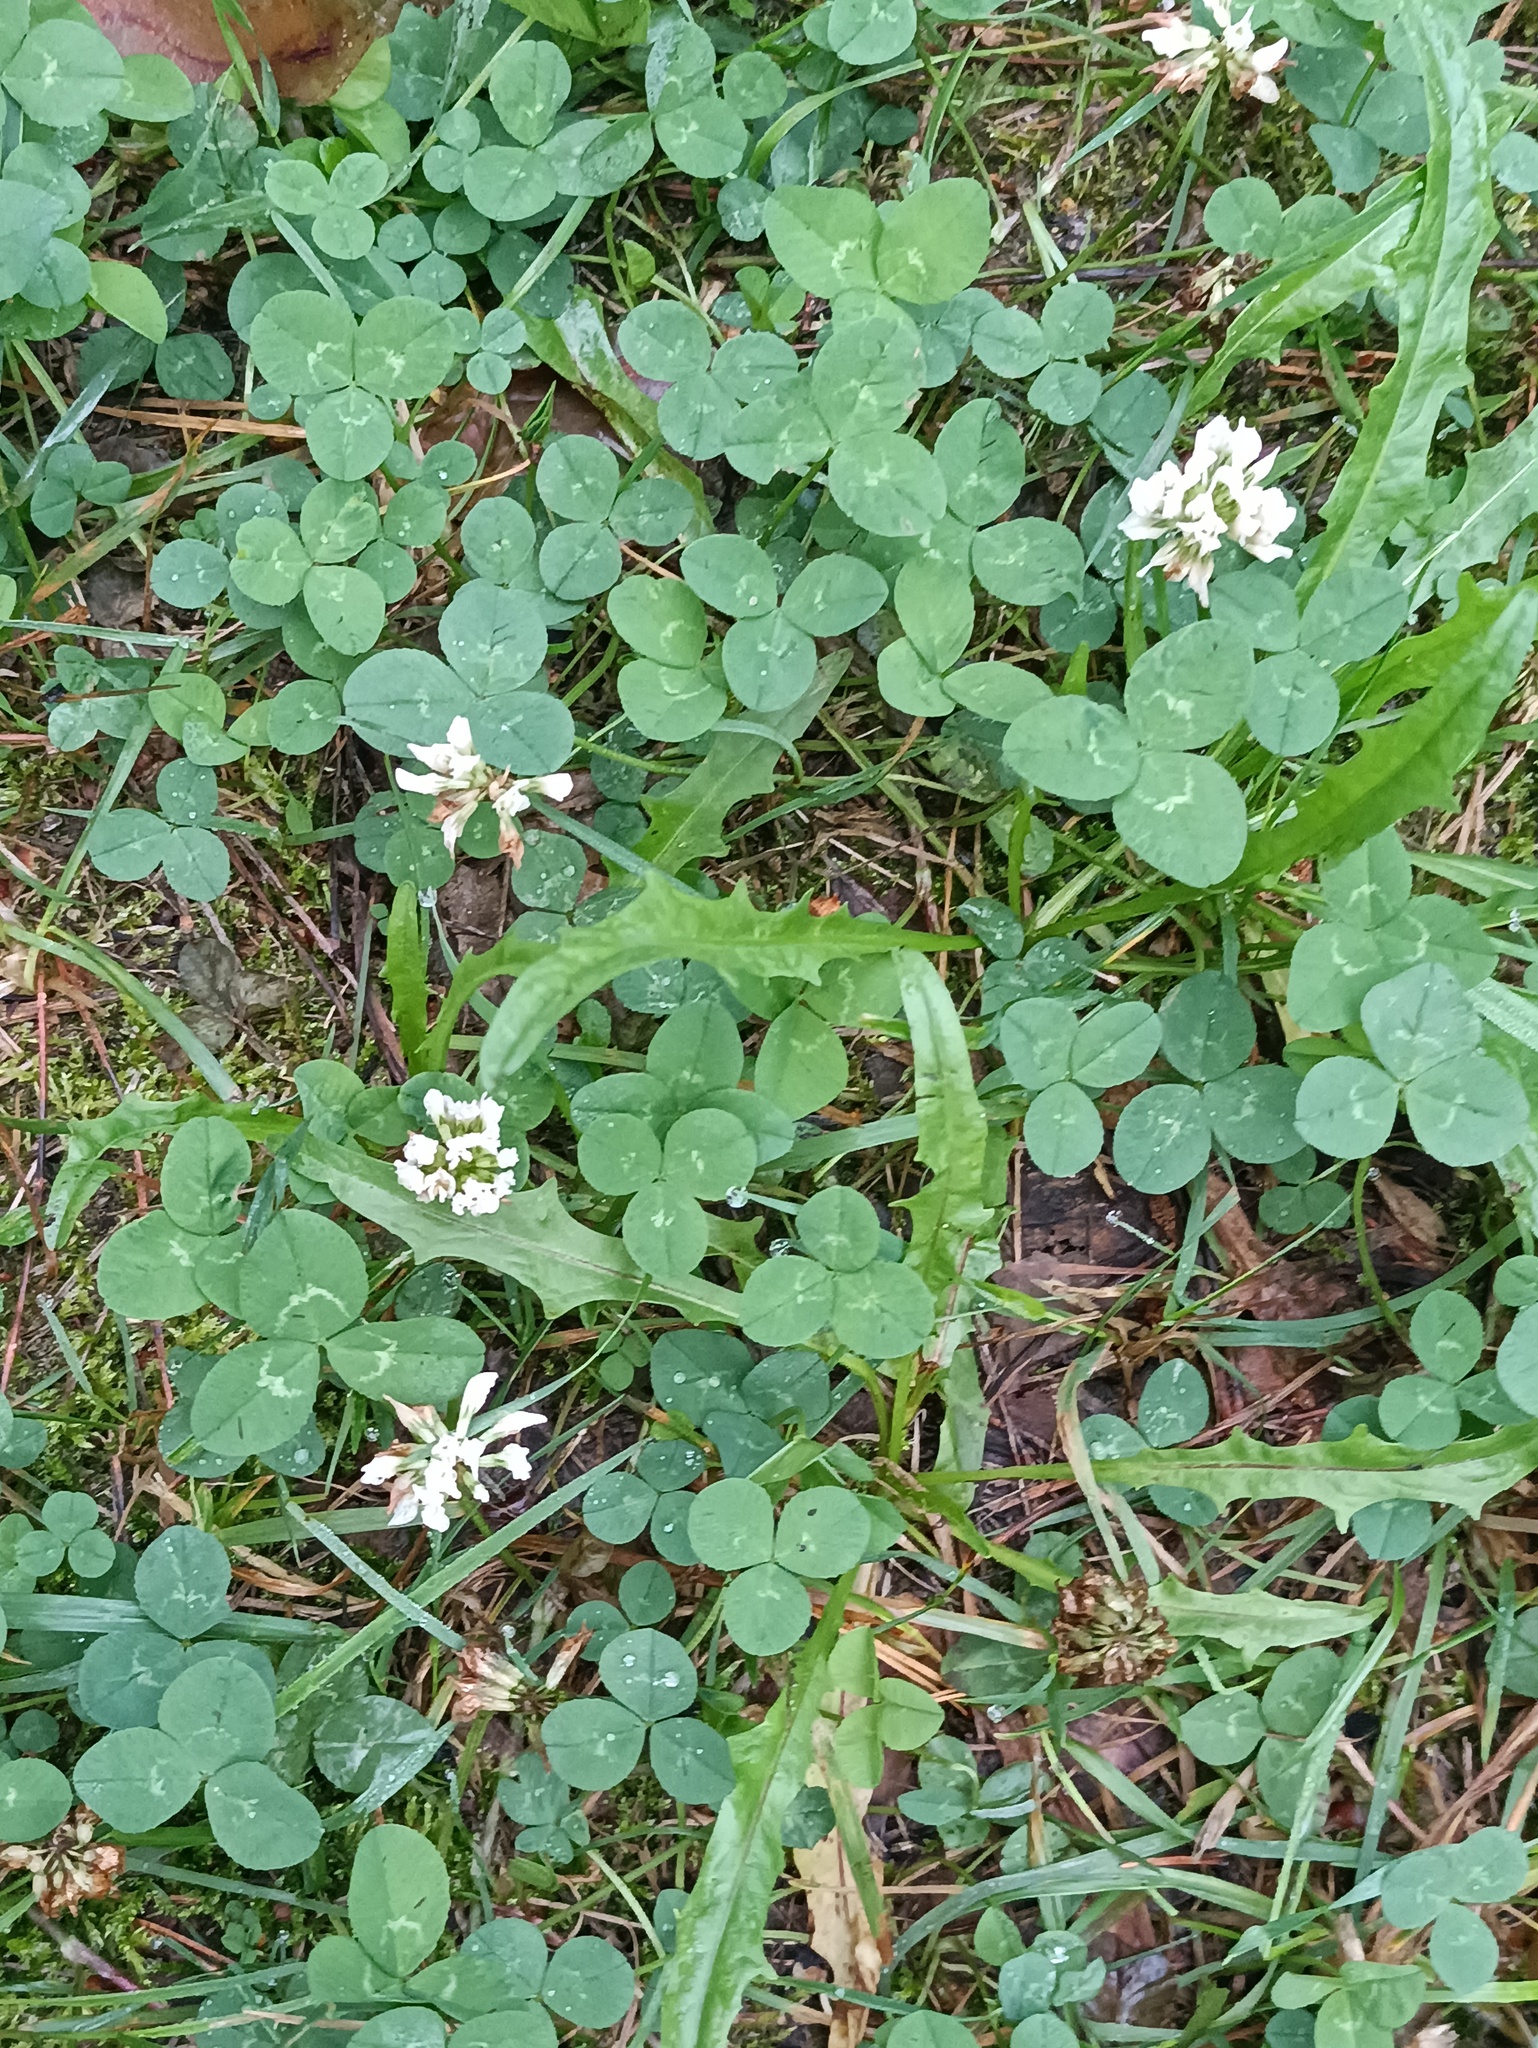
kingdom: Plantae
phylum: Tracheophyta
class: Magnoliopsida
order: Fabales
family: Fabaceae
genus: Trifolium
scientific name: Trifolium repens
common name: White clover
